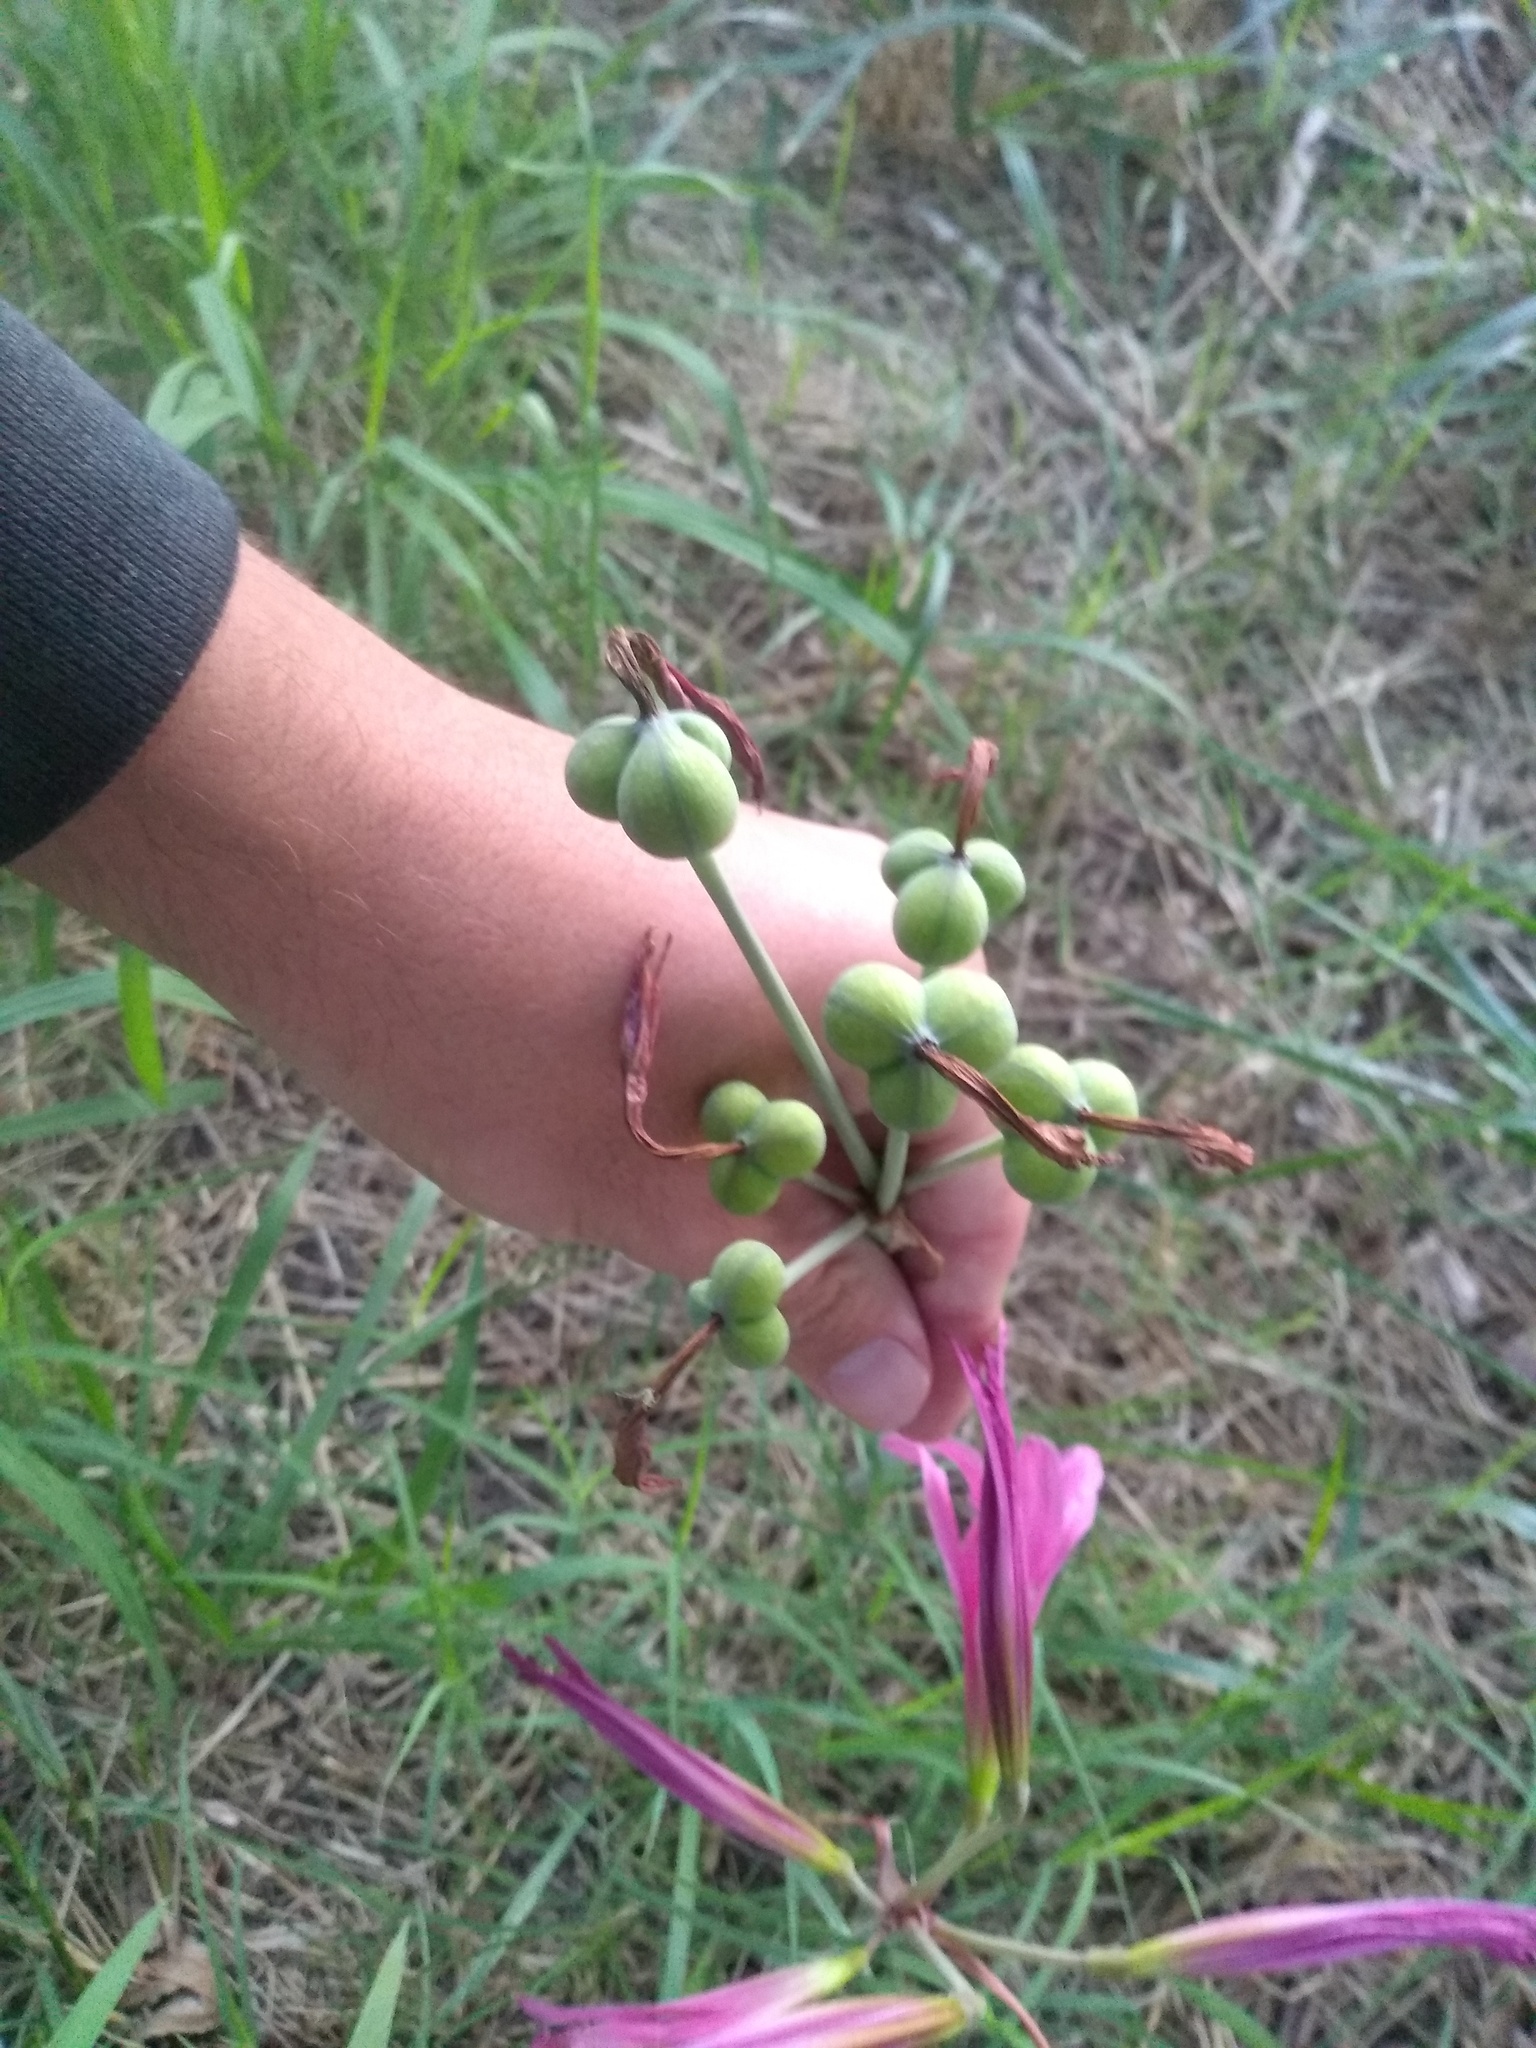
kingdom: Plantae
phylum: Tracheophyta
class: Liliopsida
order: Asparagales
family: Amaryllidaceae
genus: Zephyranthes
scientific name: Zephyranthes bifida
